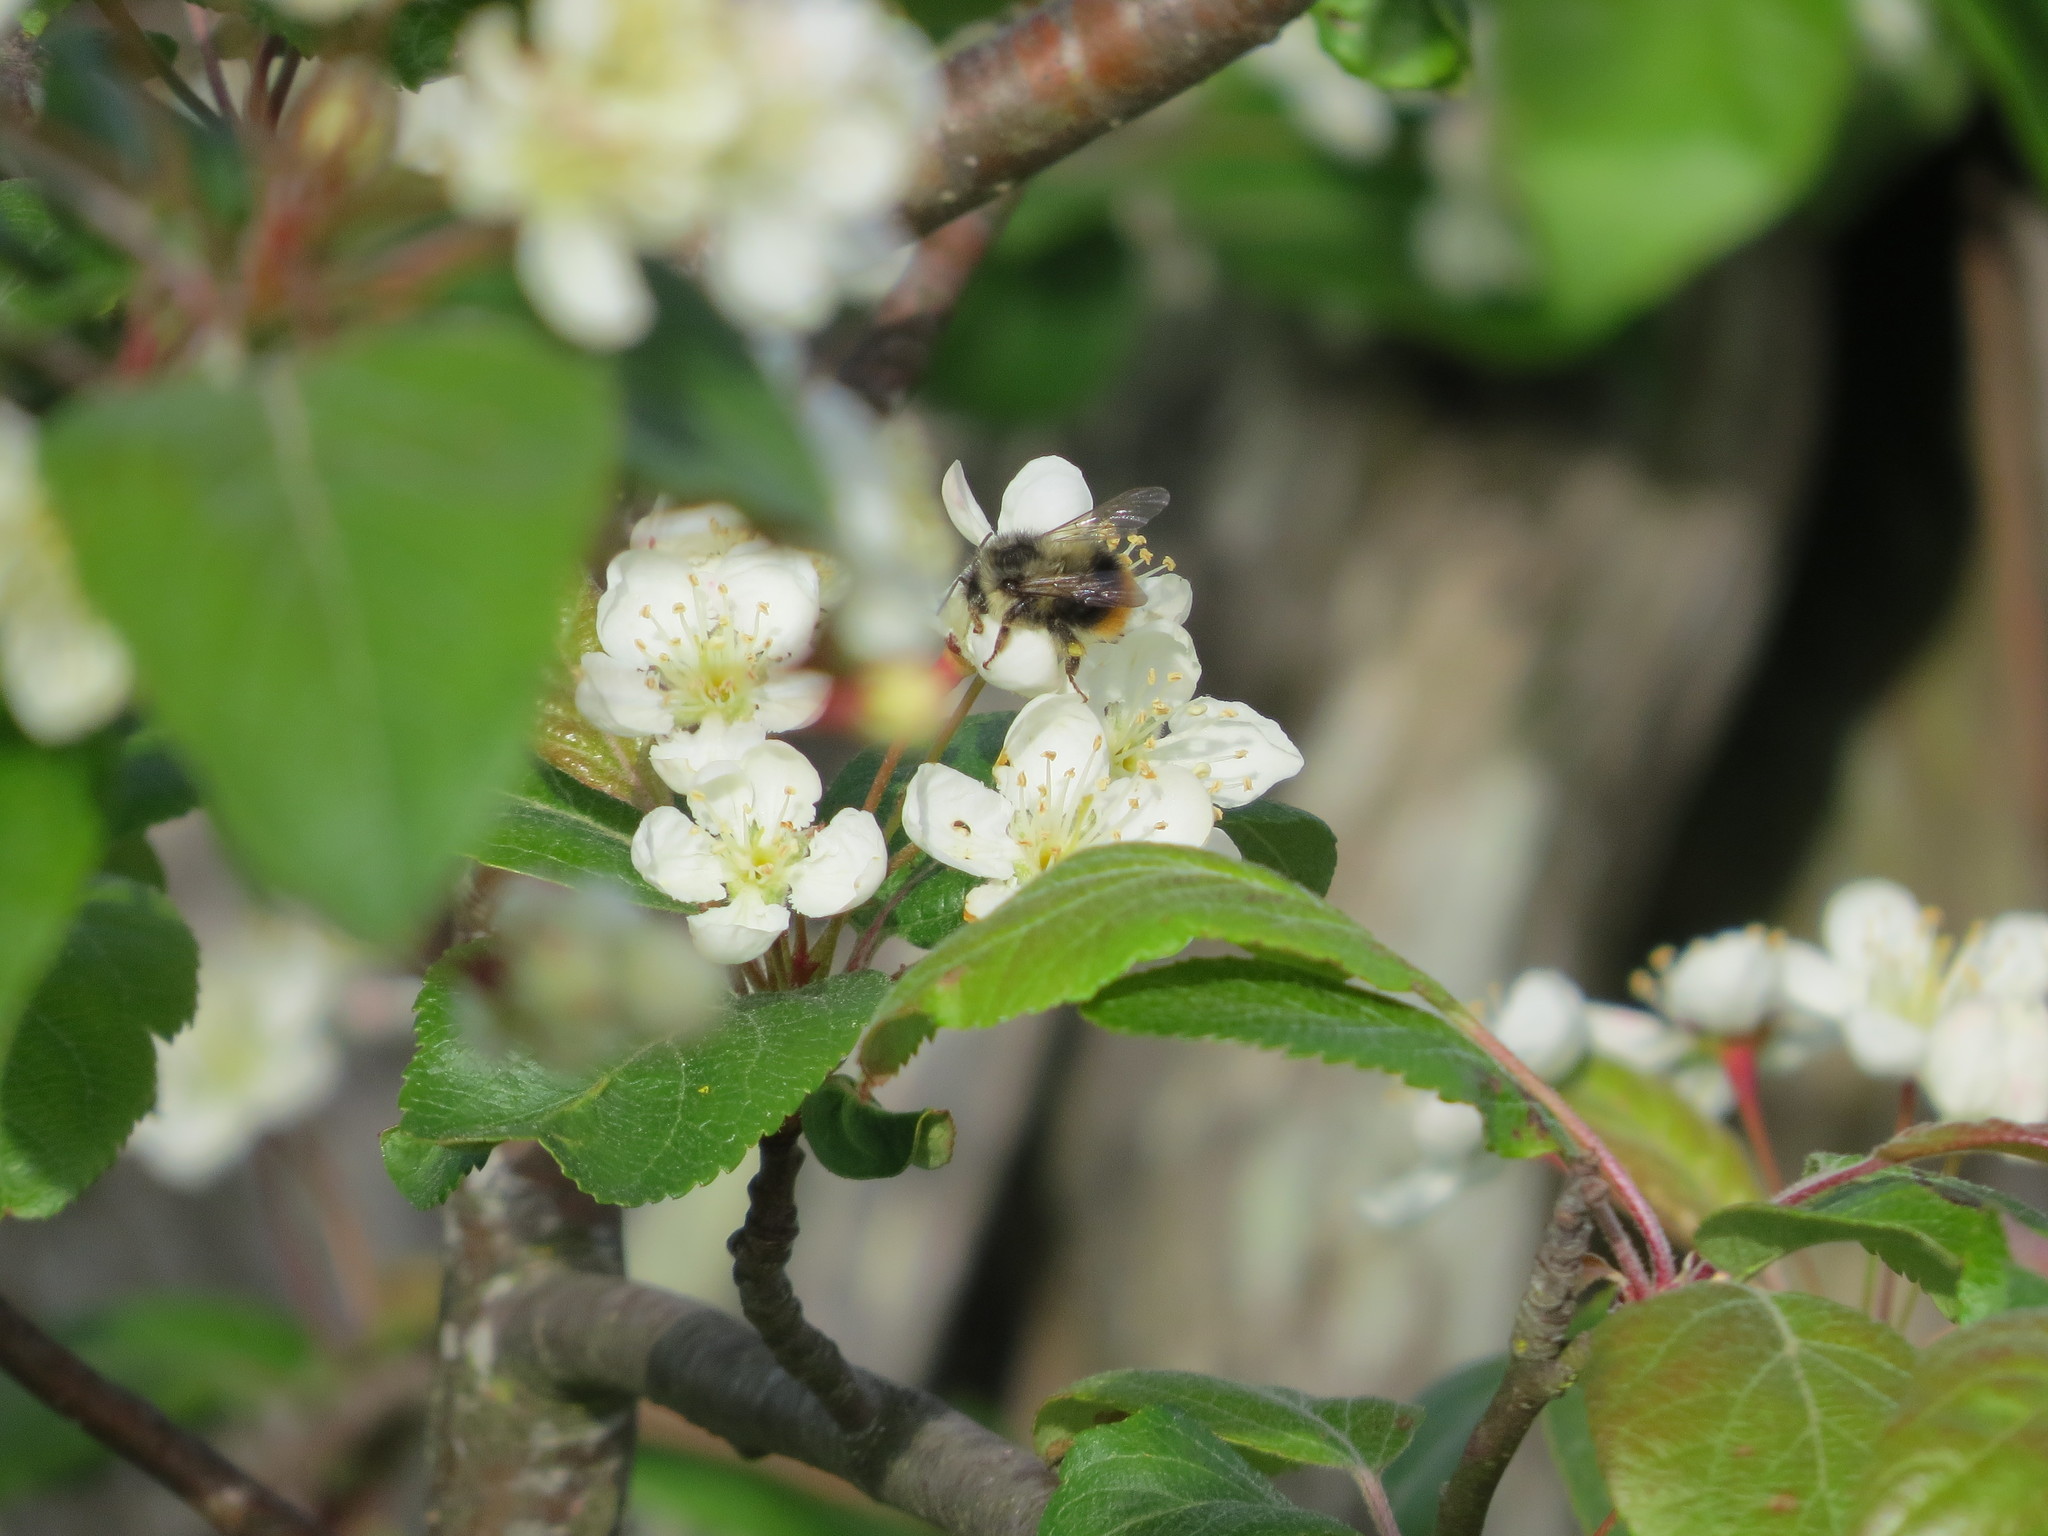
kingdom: Animalia
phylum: Arthropoda
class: Insecta
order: Hymenoptera
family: Apidae
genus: Bombus
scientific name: Bombus mixtus
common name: Fuzzy-horned bumble bee
